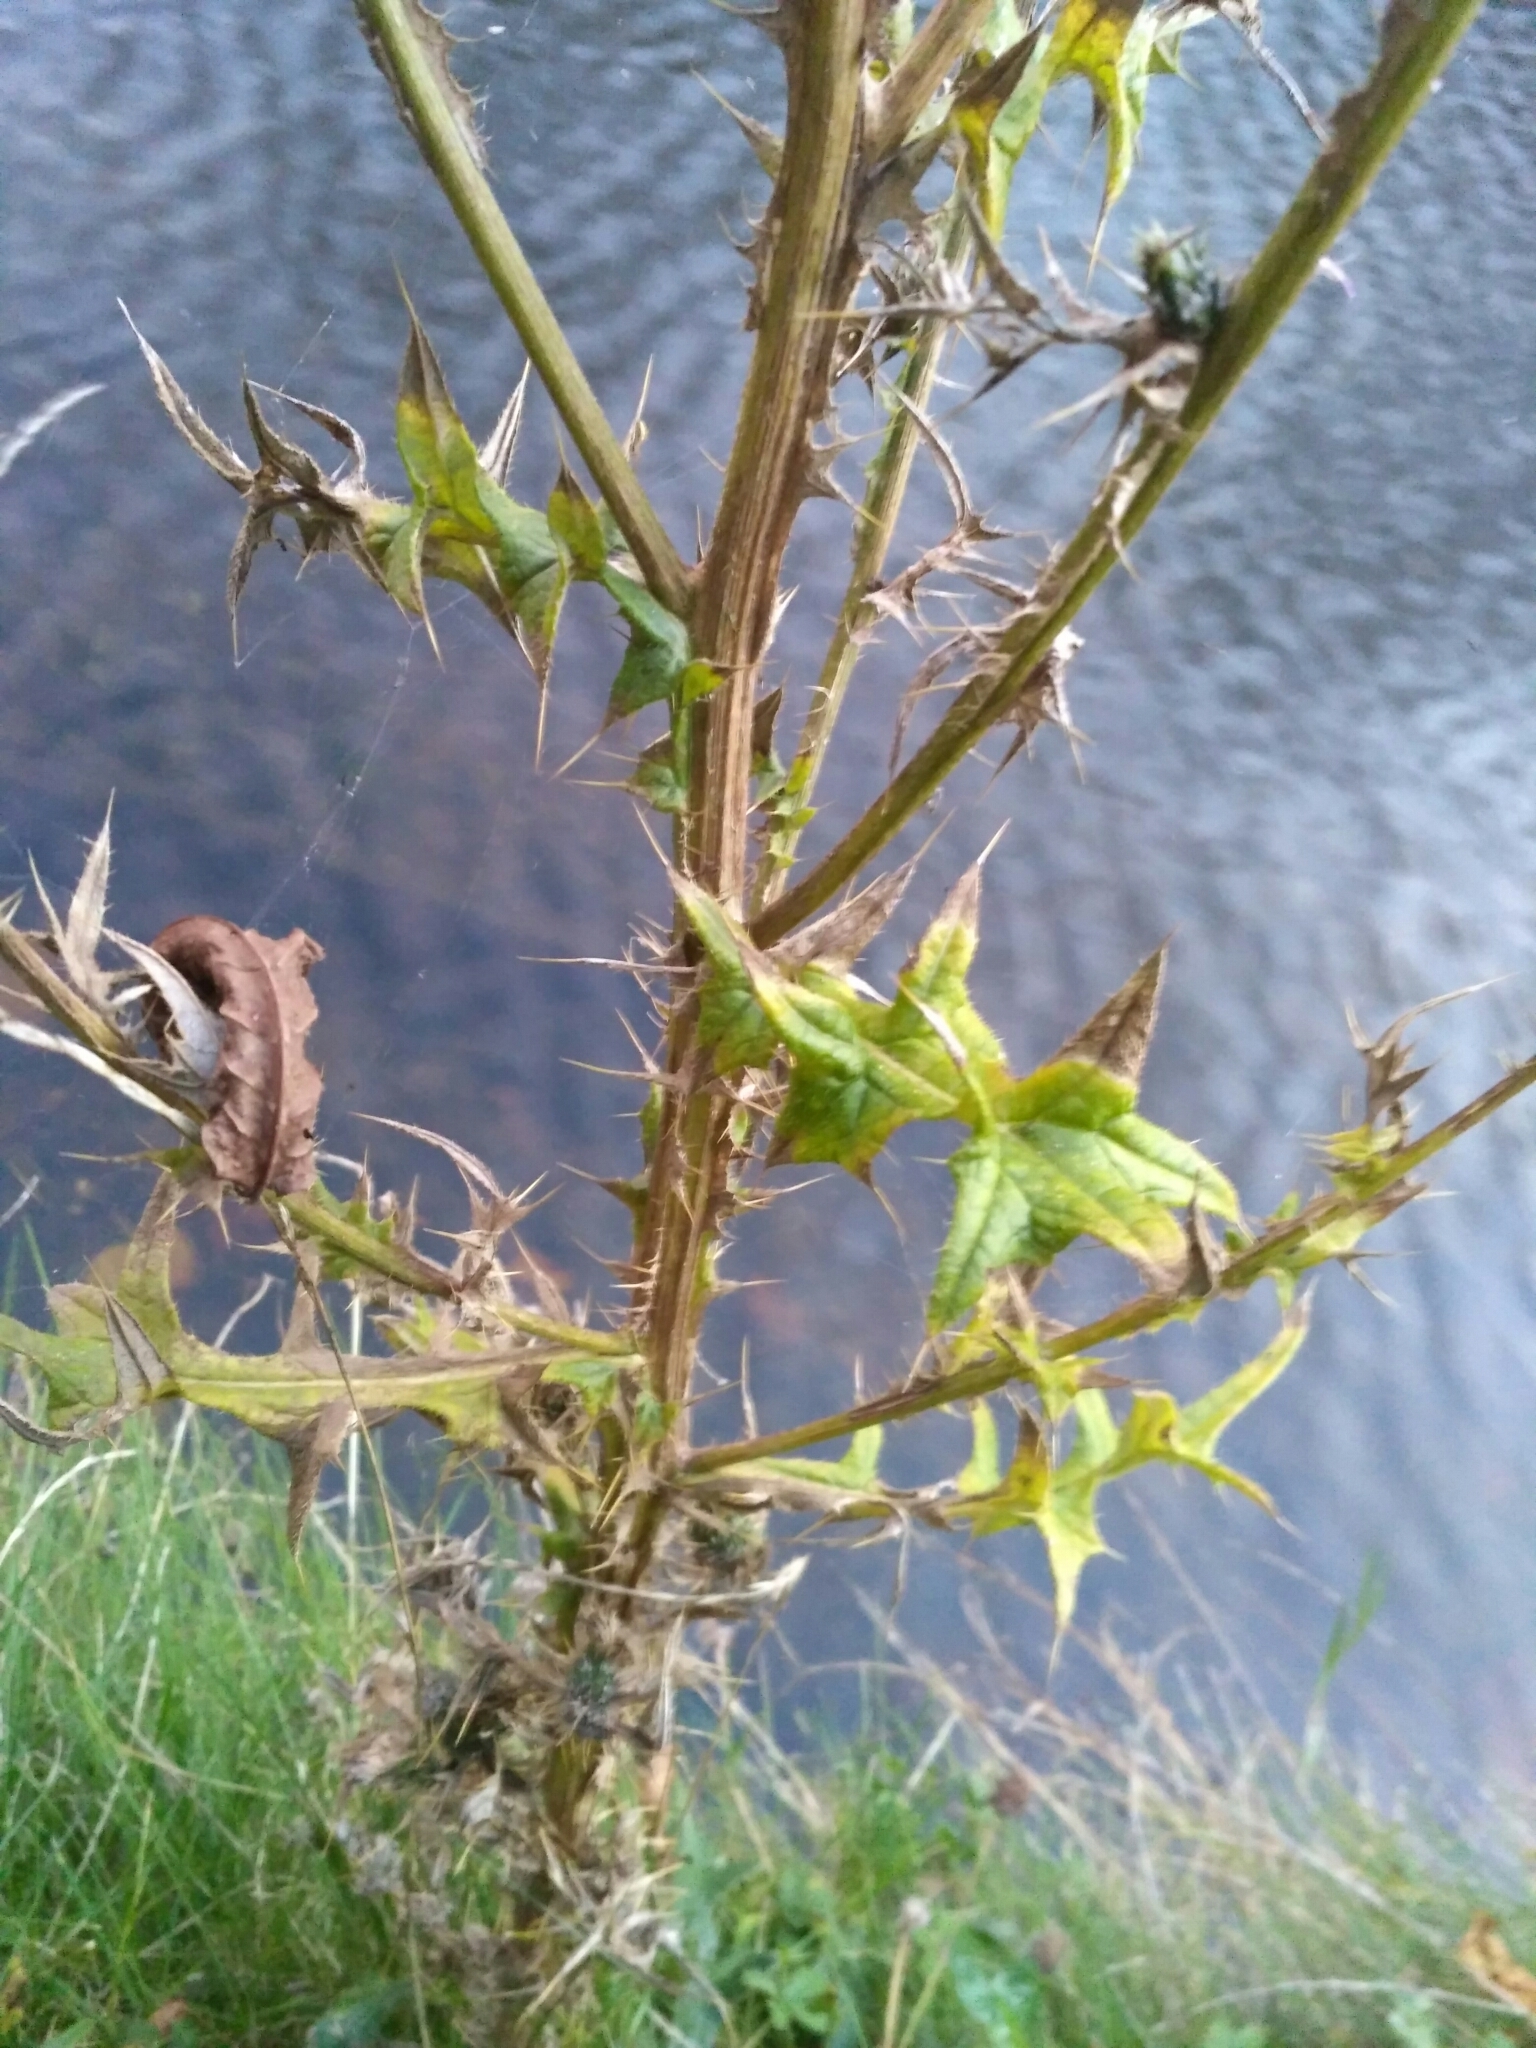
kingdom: Plantae
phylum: Tracheophyta
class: Magnoliopsida
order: Asterales
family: Asteraceae
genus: Cirsium
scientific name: Cirsium vulgare
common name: Bull thistle
